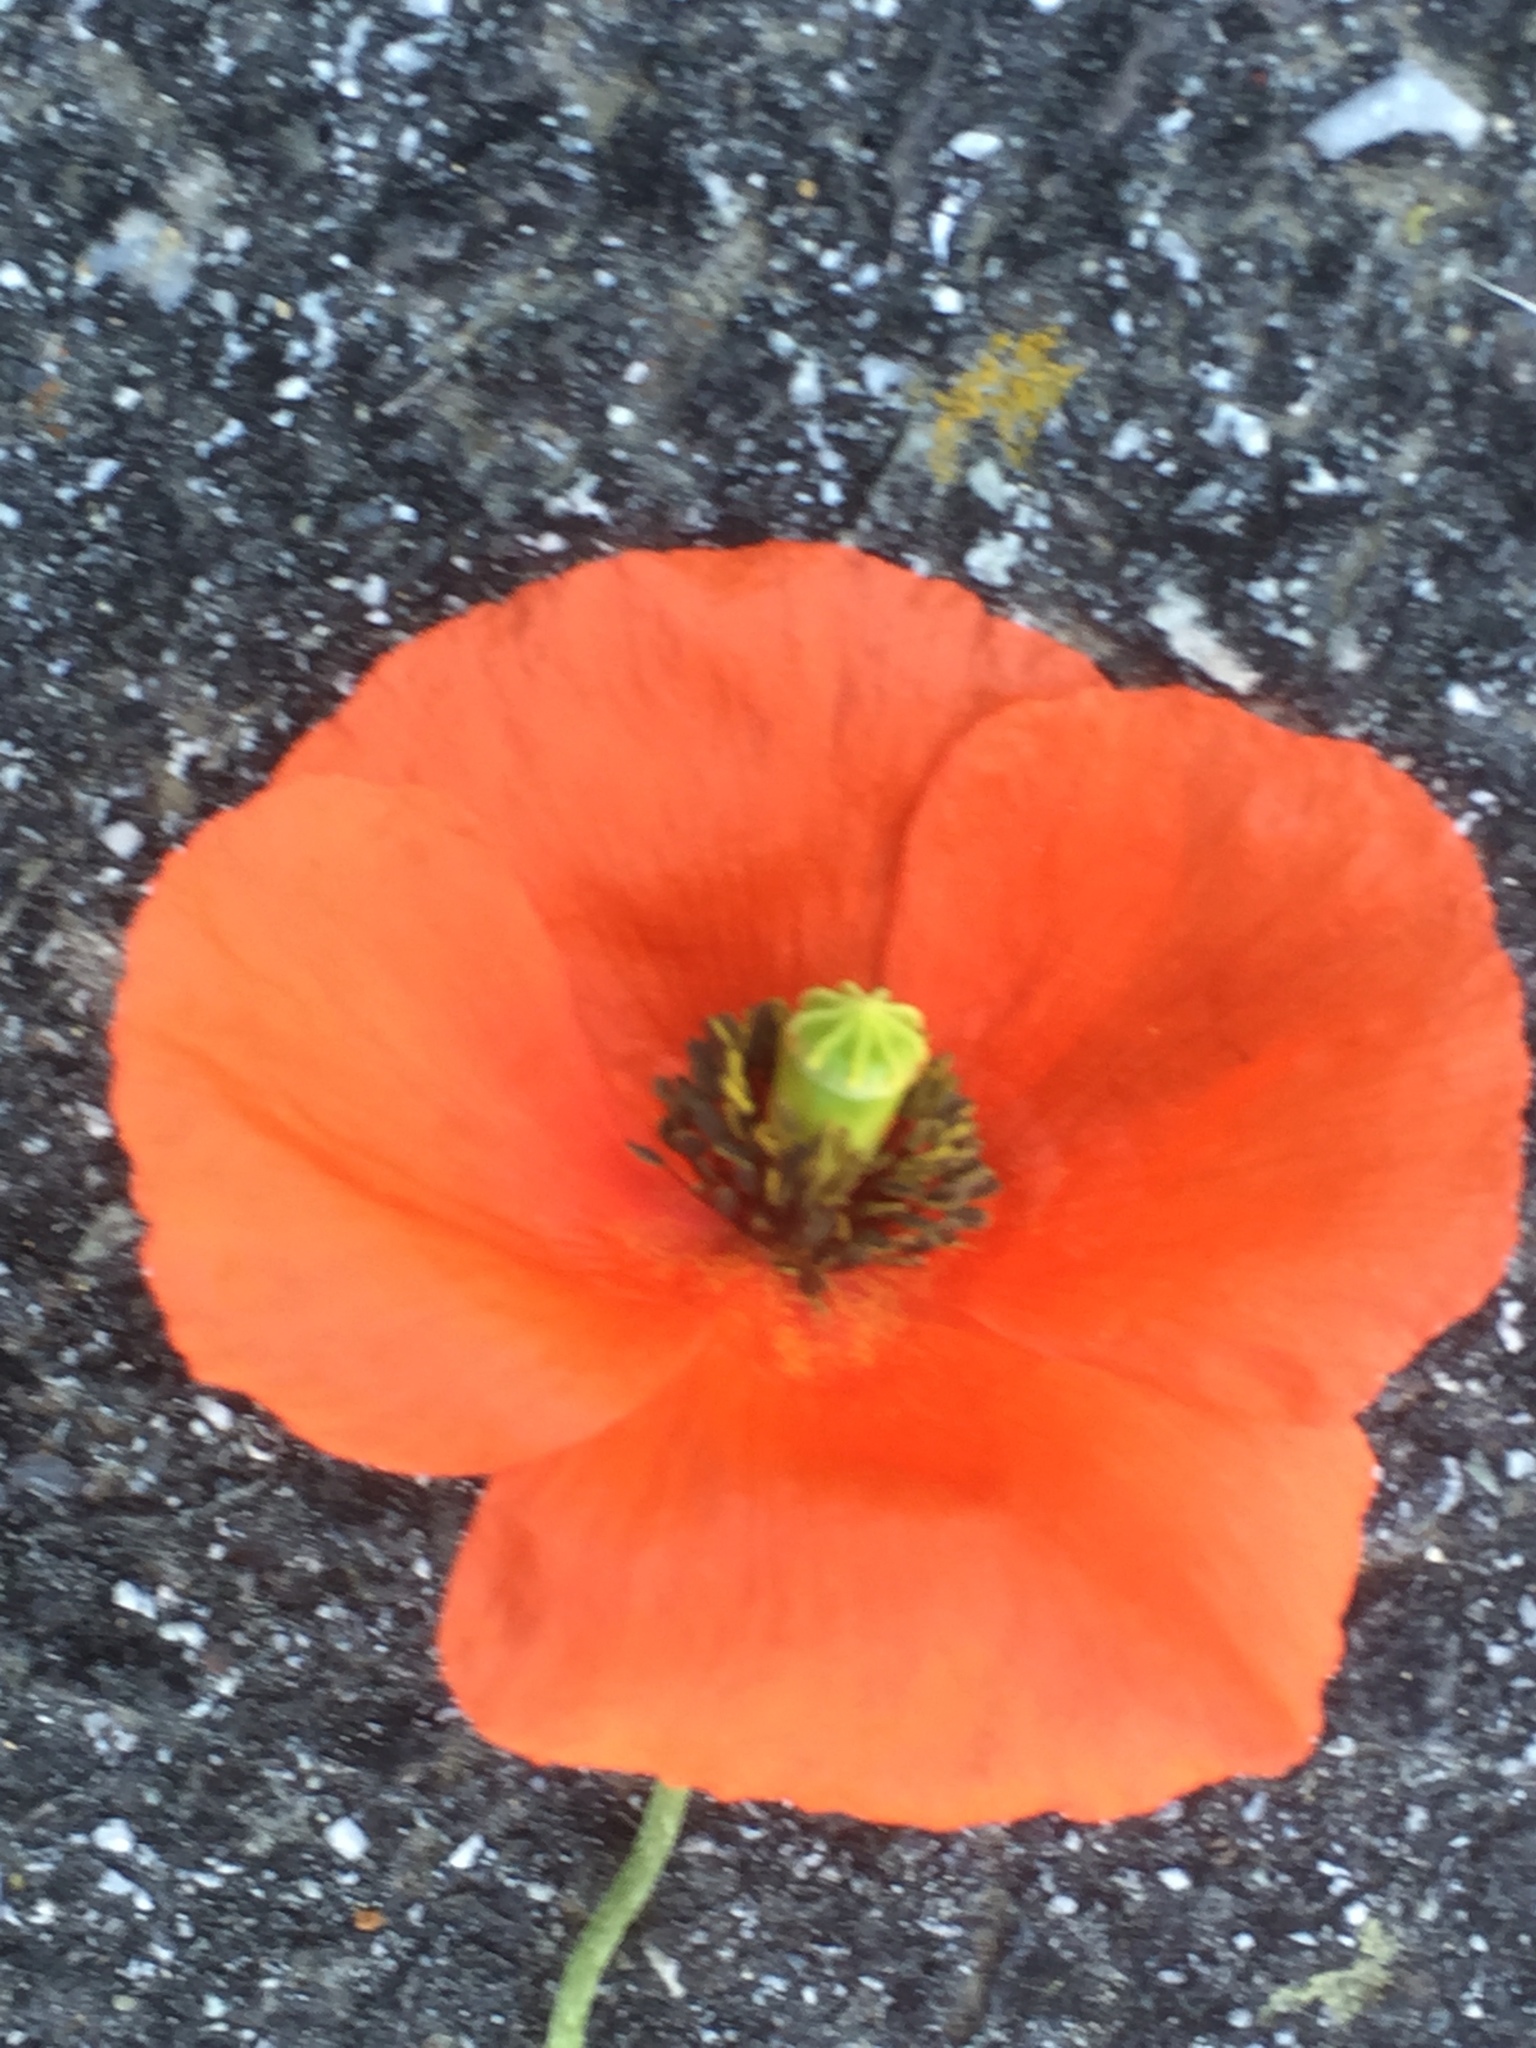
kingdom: Plantae
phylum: Tracheophyta
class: Magnoliopsida
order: Ranunculales
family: Papaveraceae
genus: Papaver
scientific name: Papaver dubium
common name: Long-headed poppy
